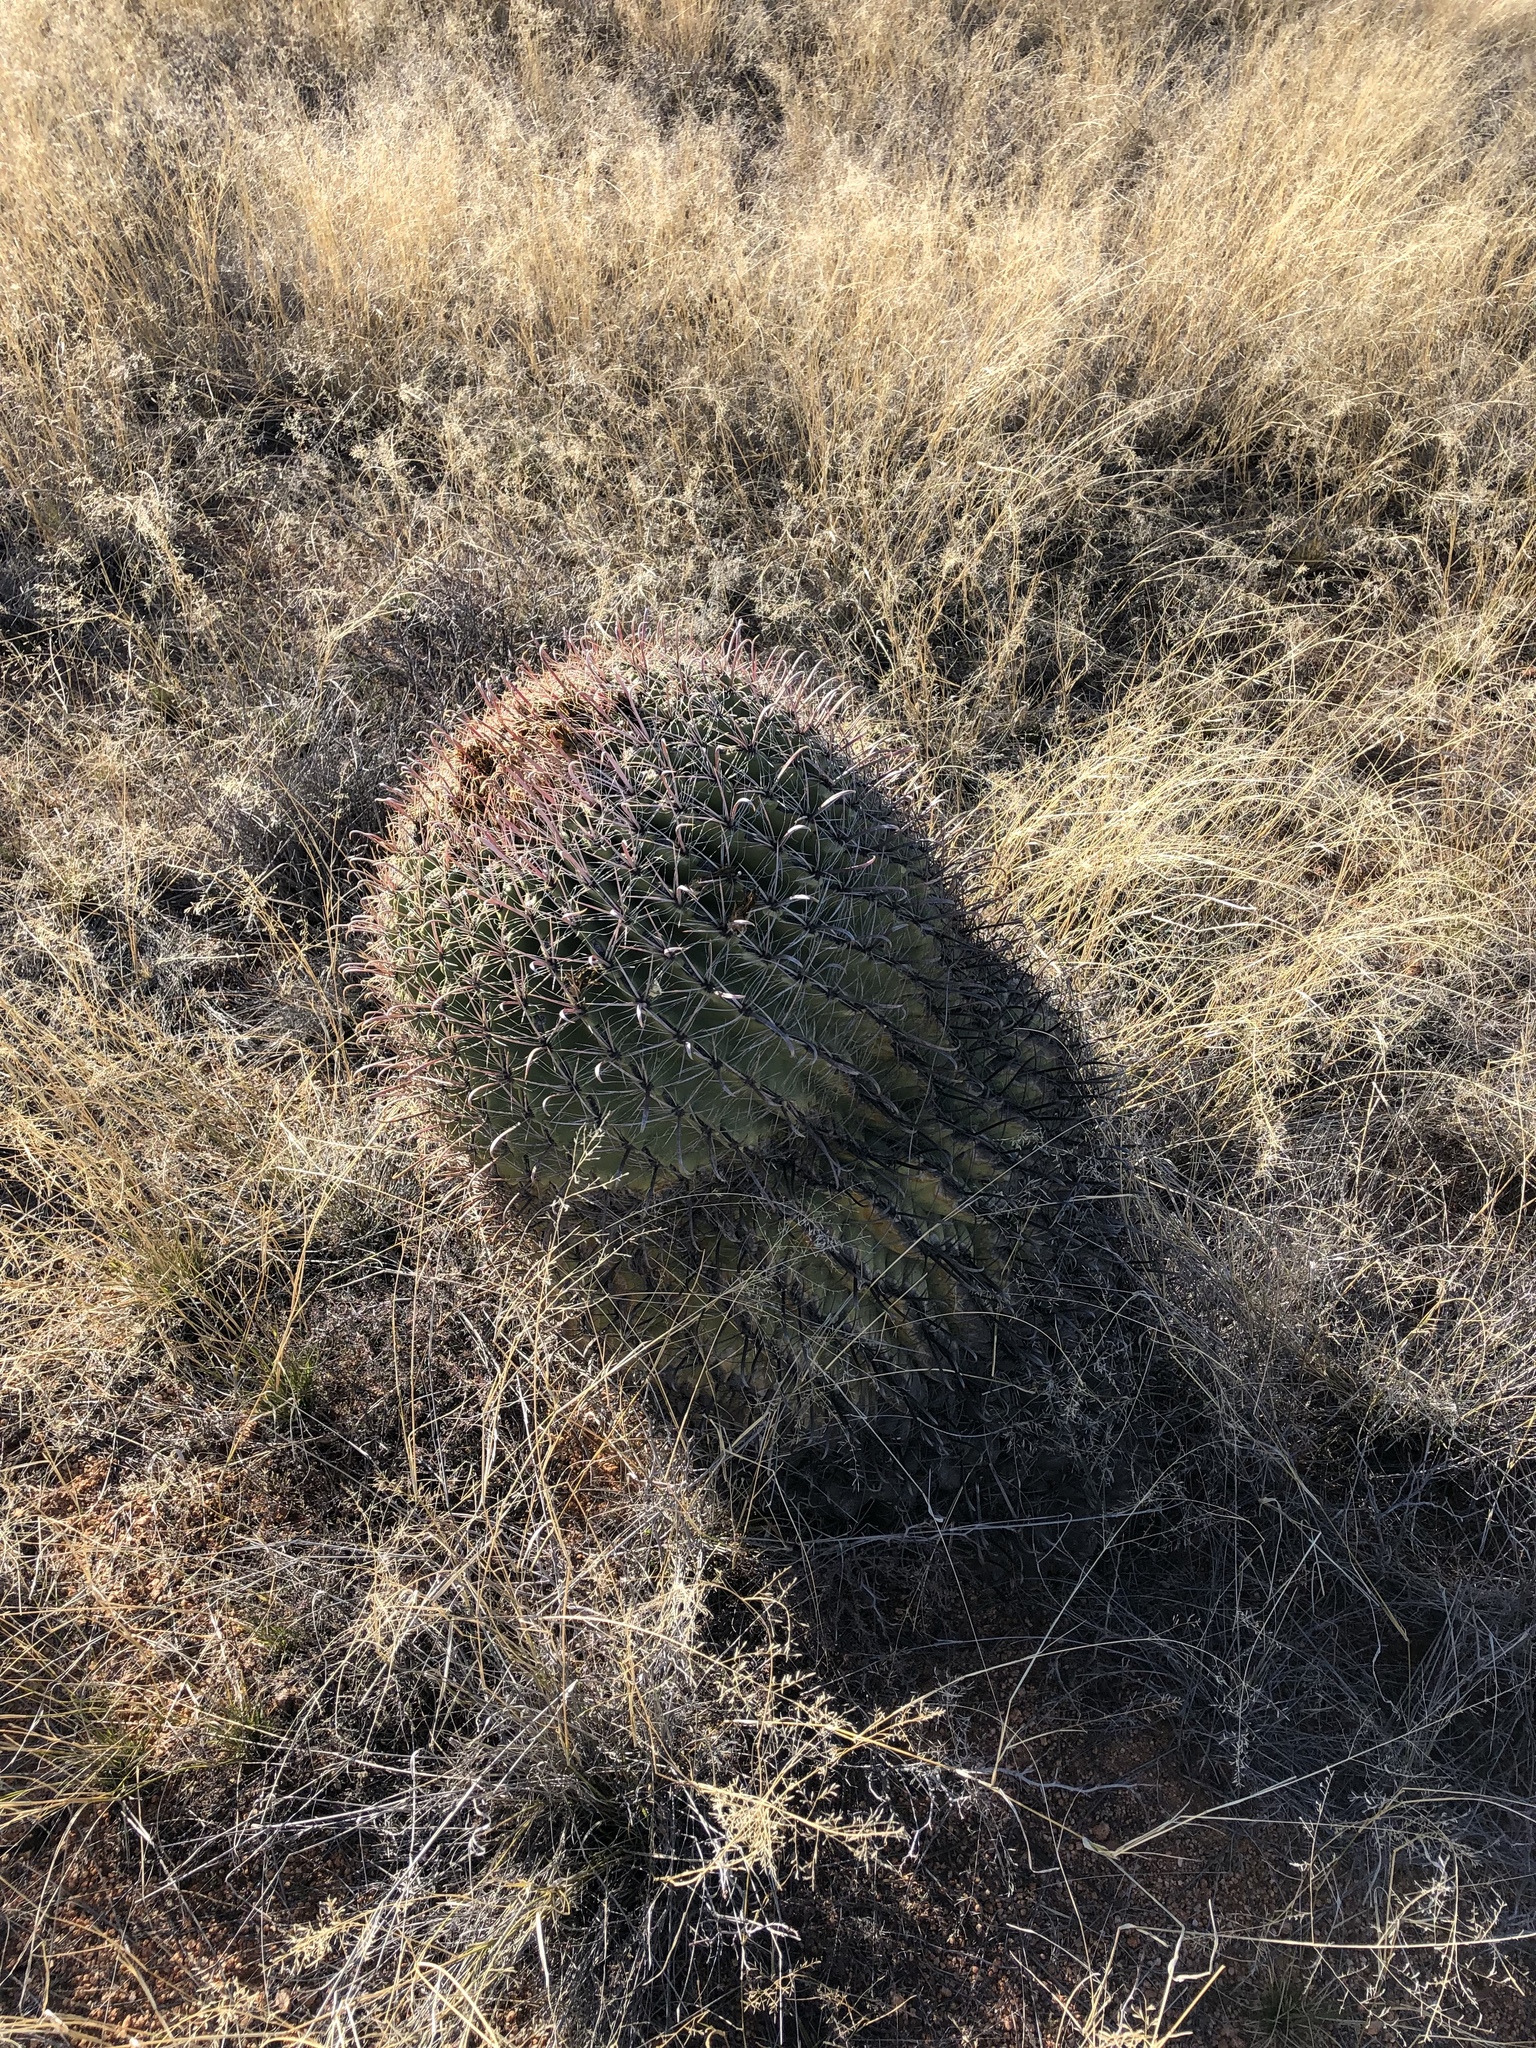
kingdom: Plantae
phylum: Tracheophyta
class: Magnoliopsida
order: Caryophyllales
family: Cactaceae
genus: Ferocactus
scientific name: Ferocactus wislizeni
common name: Candy barrel cactus
